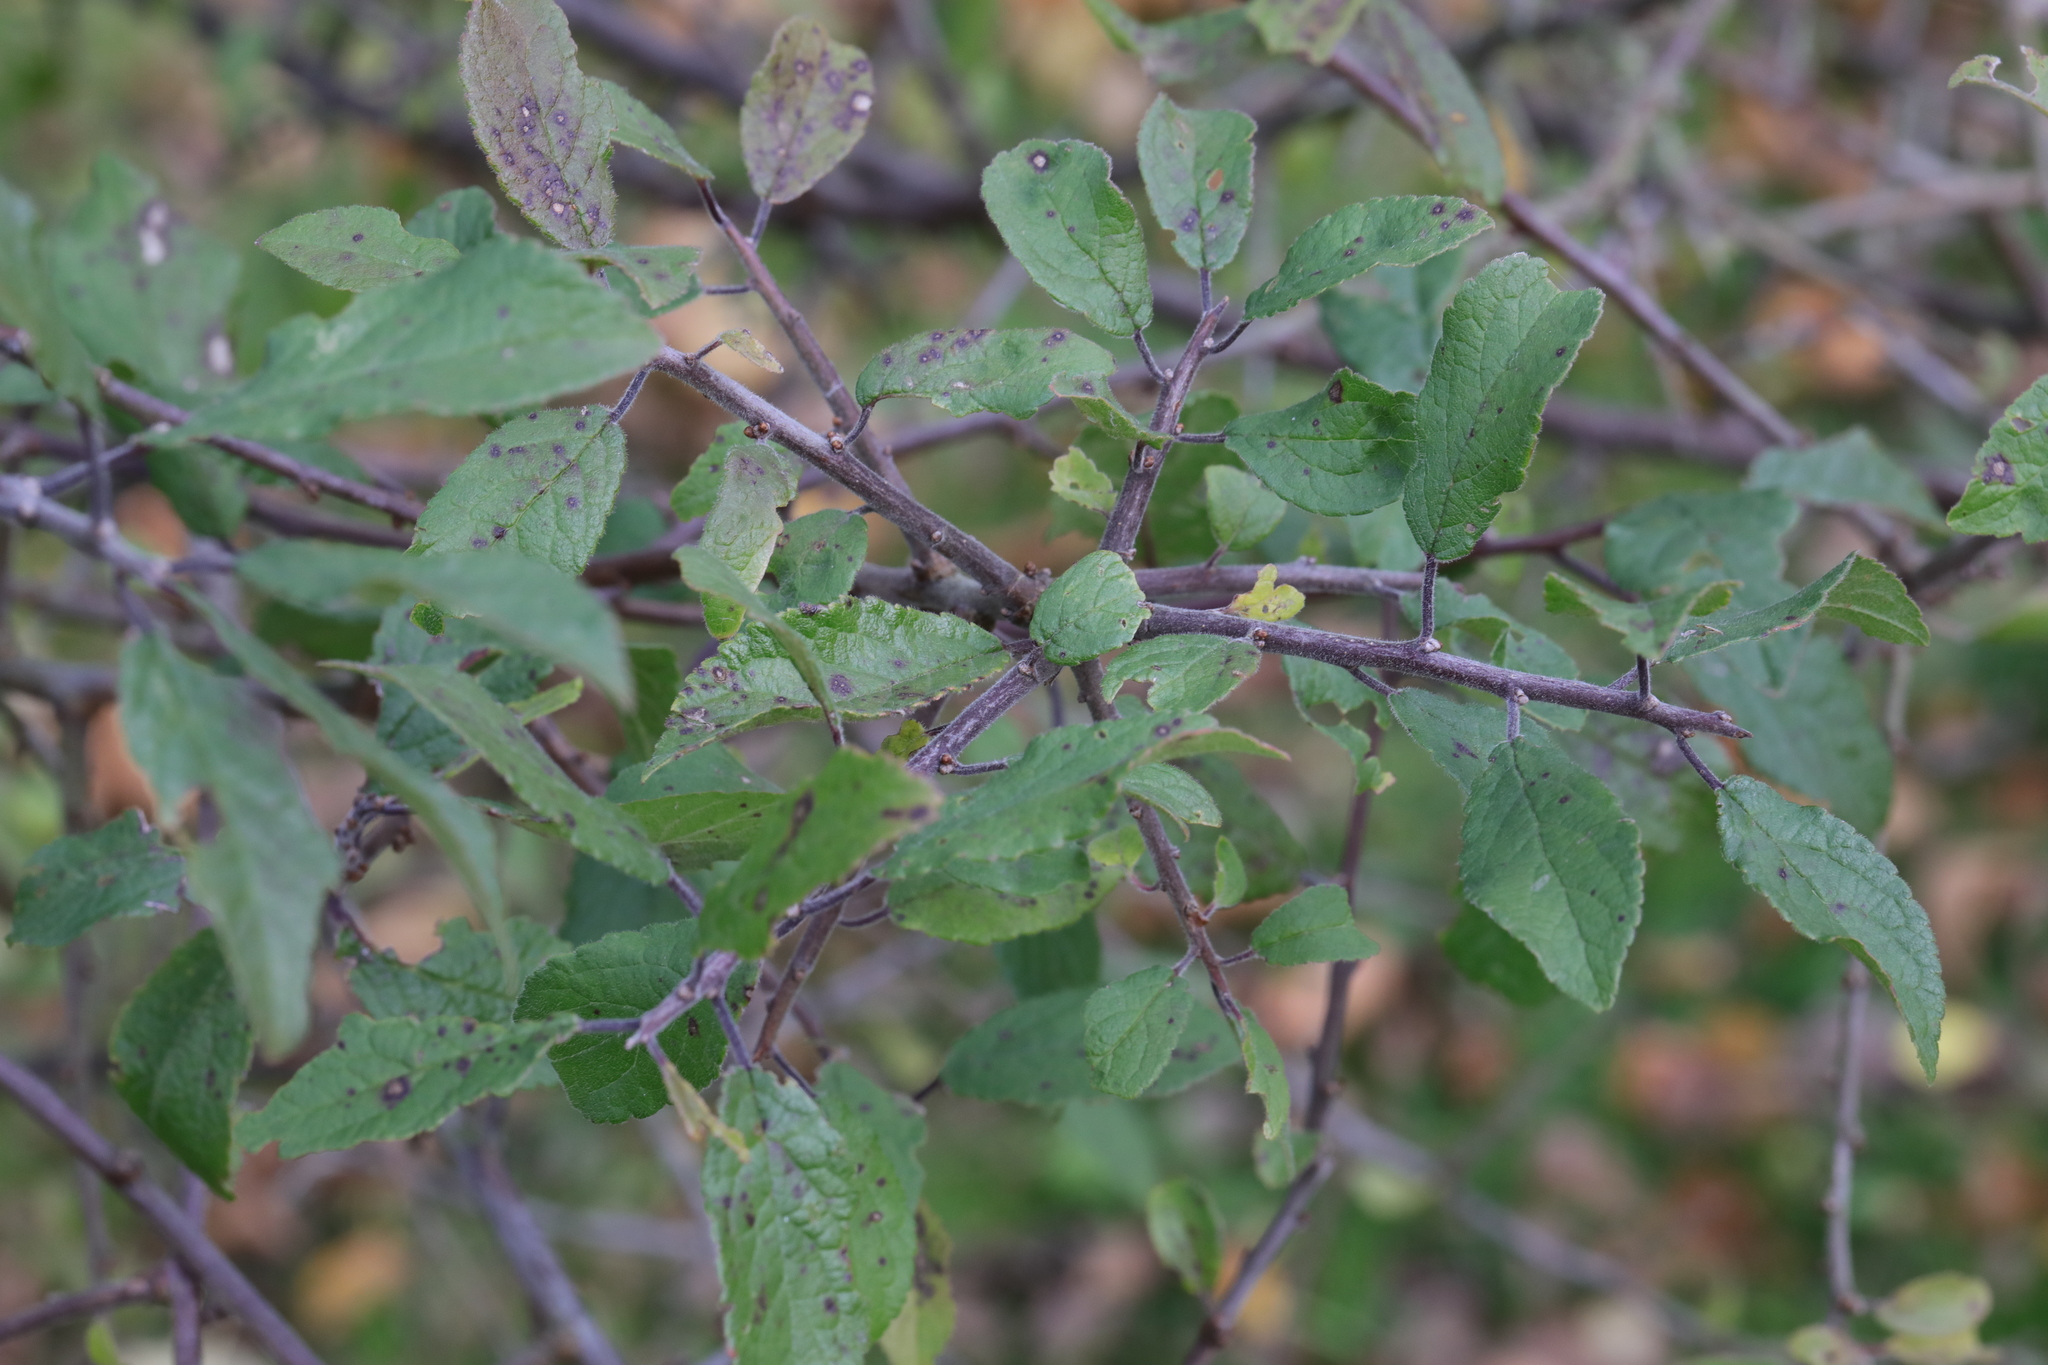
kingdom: Plantae
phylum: Tracheophyta
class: Magnoliopsida
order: Rosales
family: Rosaceae
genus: Prunus
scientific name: Prunus spinosa
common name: Blackthorn
